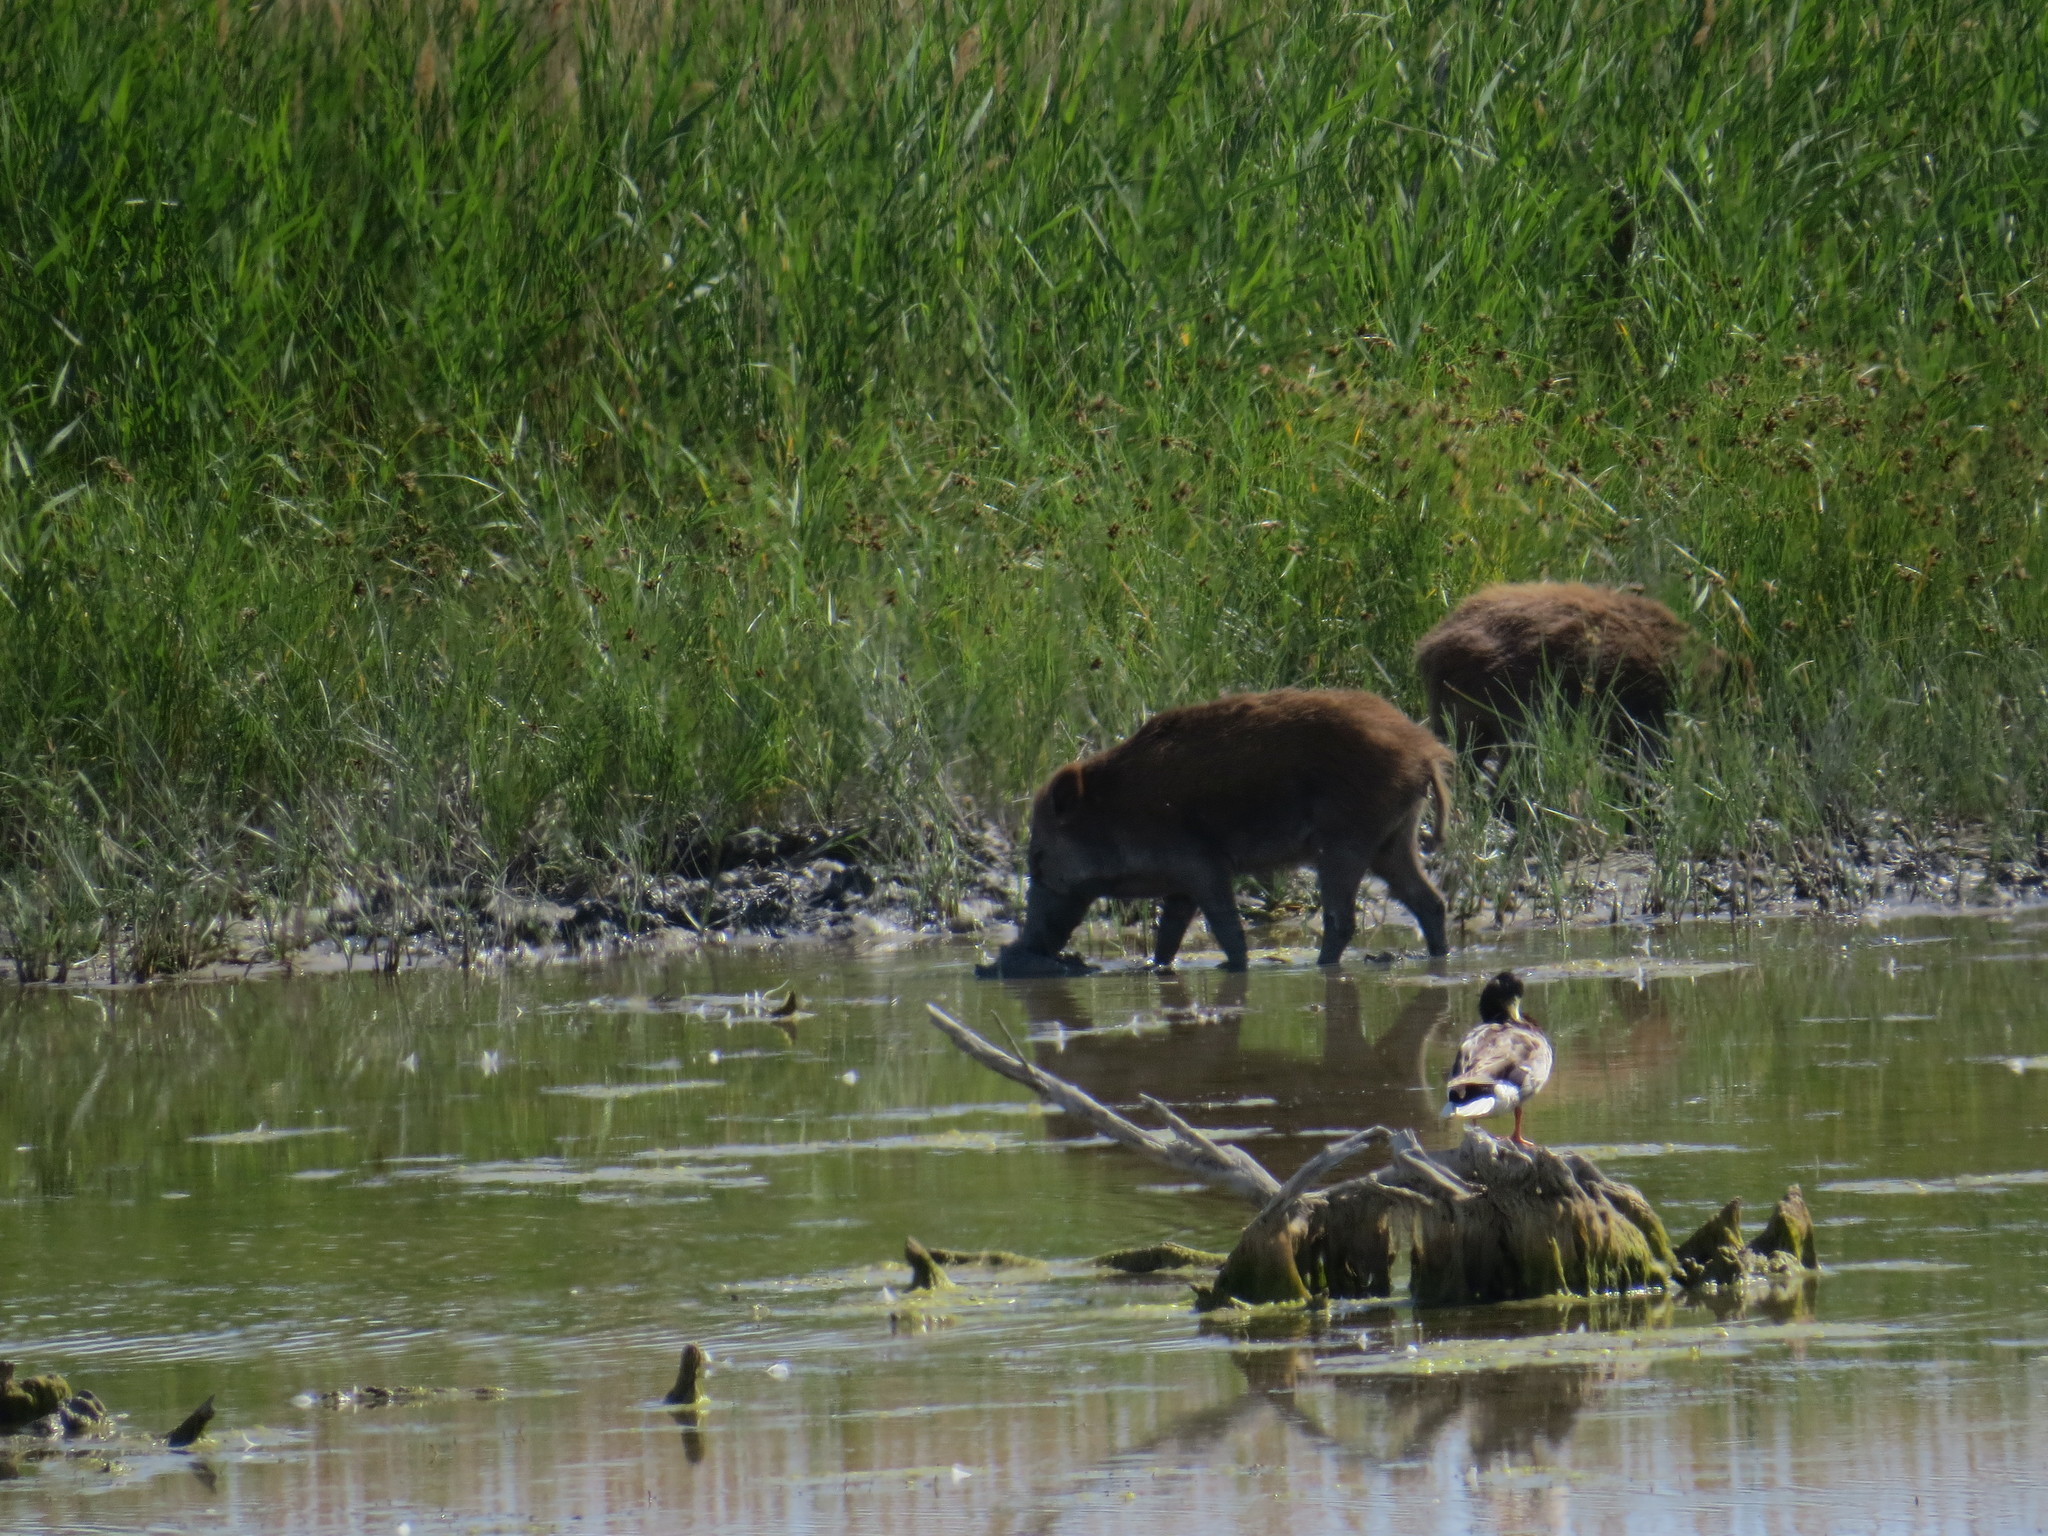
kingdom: Animalia
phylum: Chordata
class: Mammalia
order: Artiodactyla
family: Suidae
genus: Sus
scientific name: Sus scrofa
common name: Wild boar
